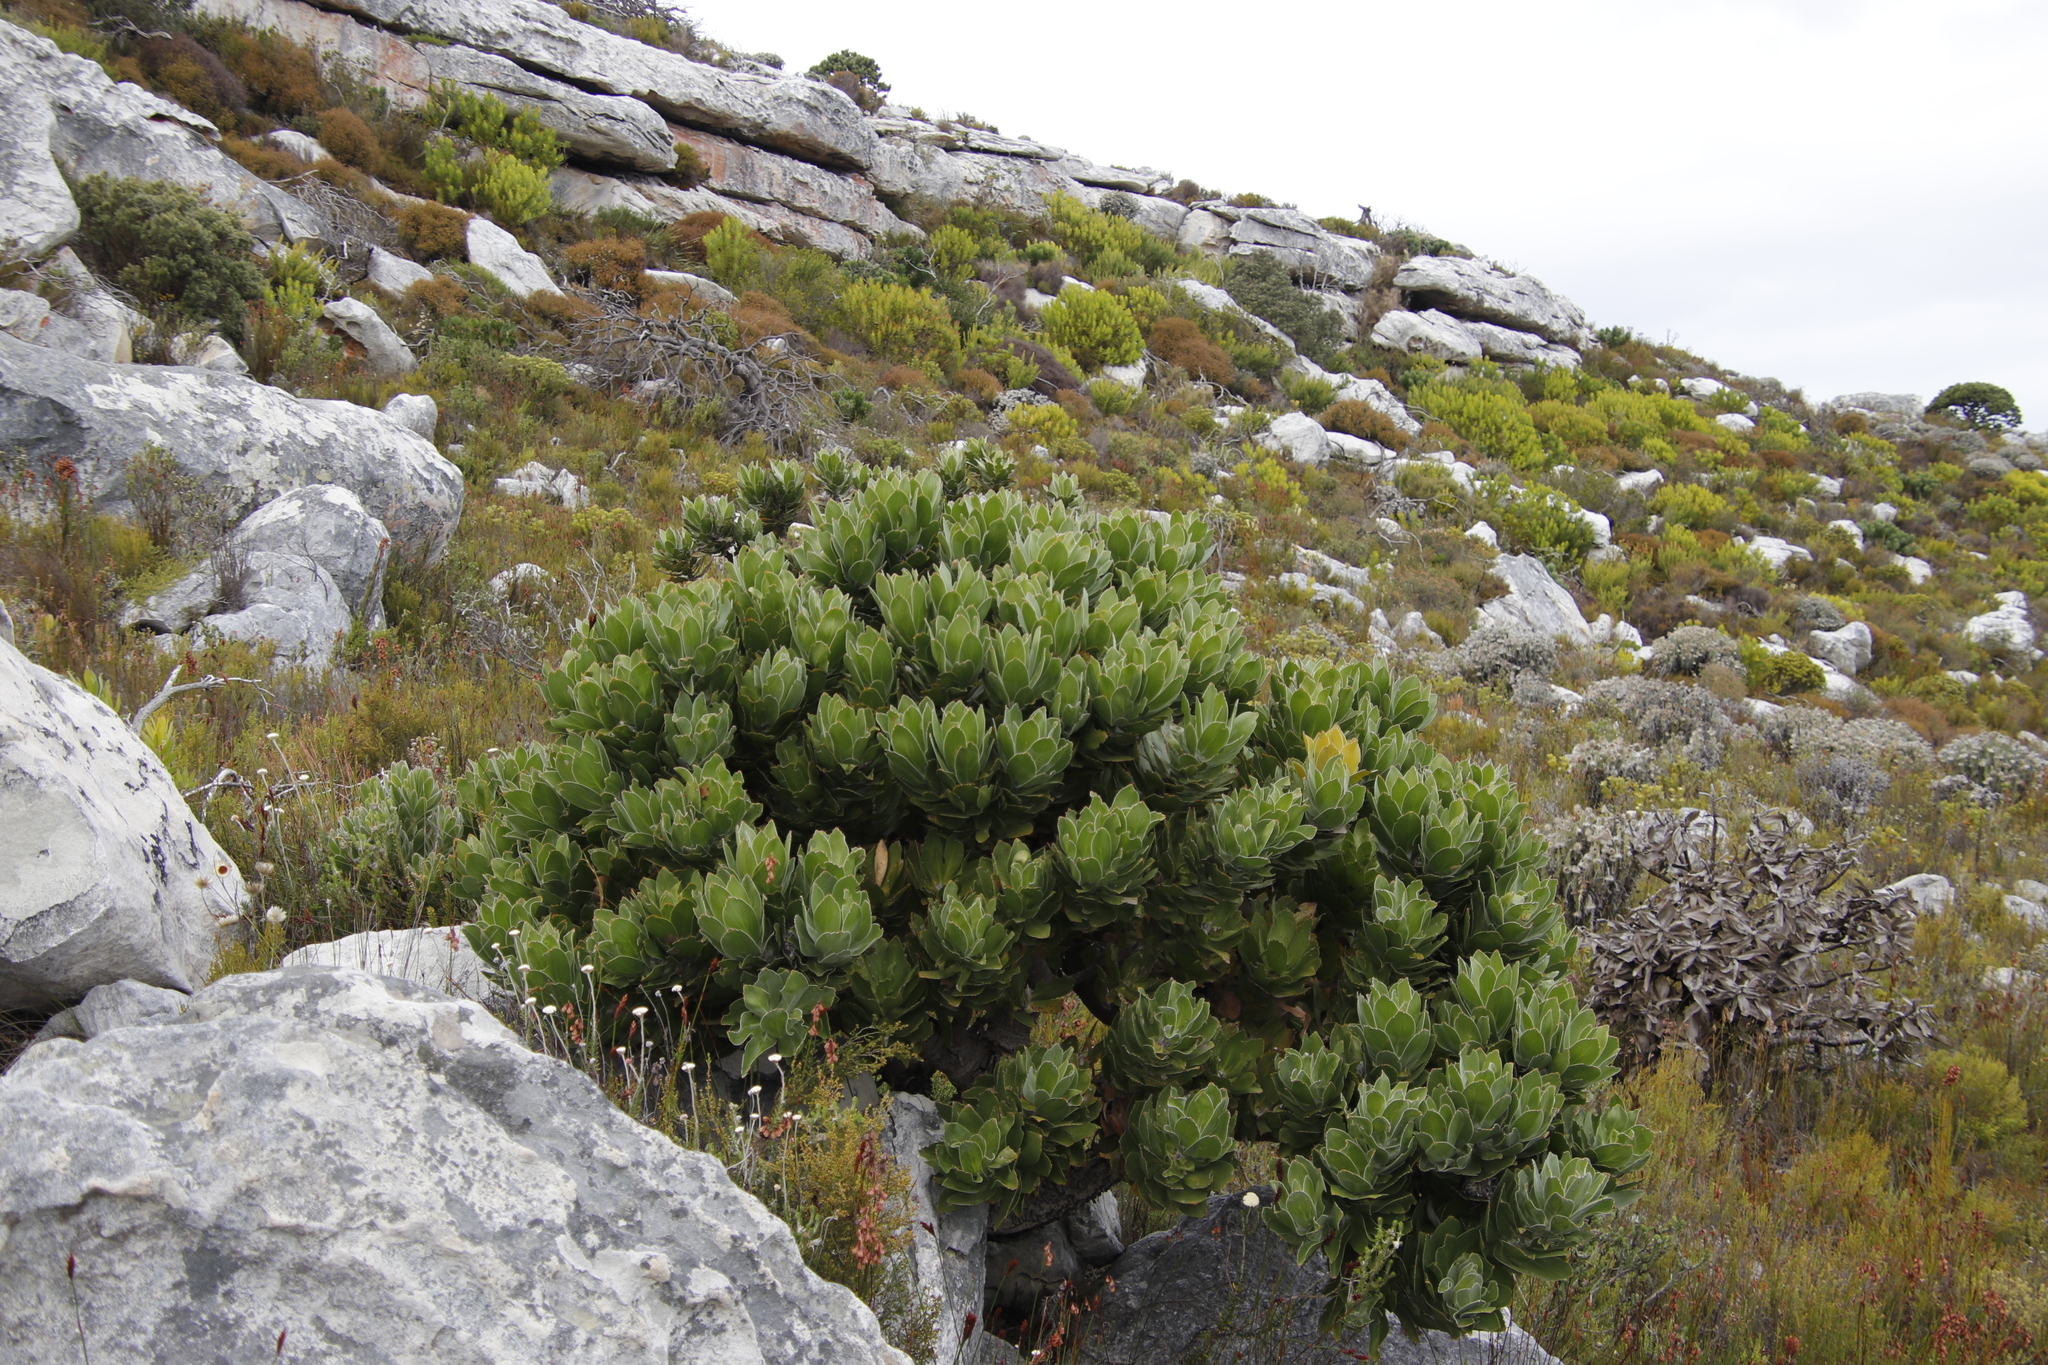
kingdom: Plantae
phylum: Tracheophyta
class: Magnoliopsida
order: Proteales
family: Proteaceae
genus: Leucospermum
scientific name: Leucospermum conocarpodendron
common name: Tree pincushion
